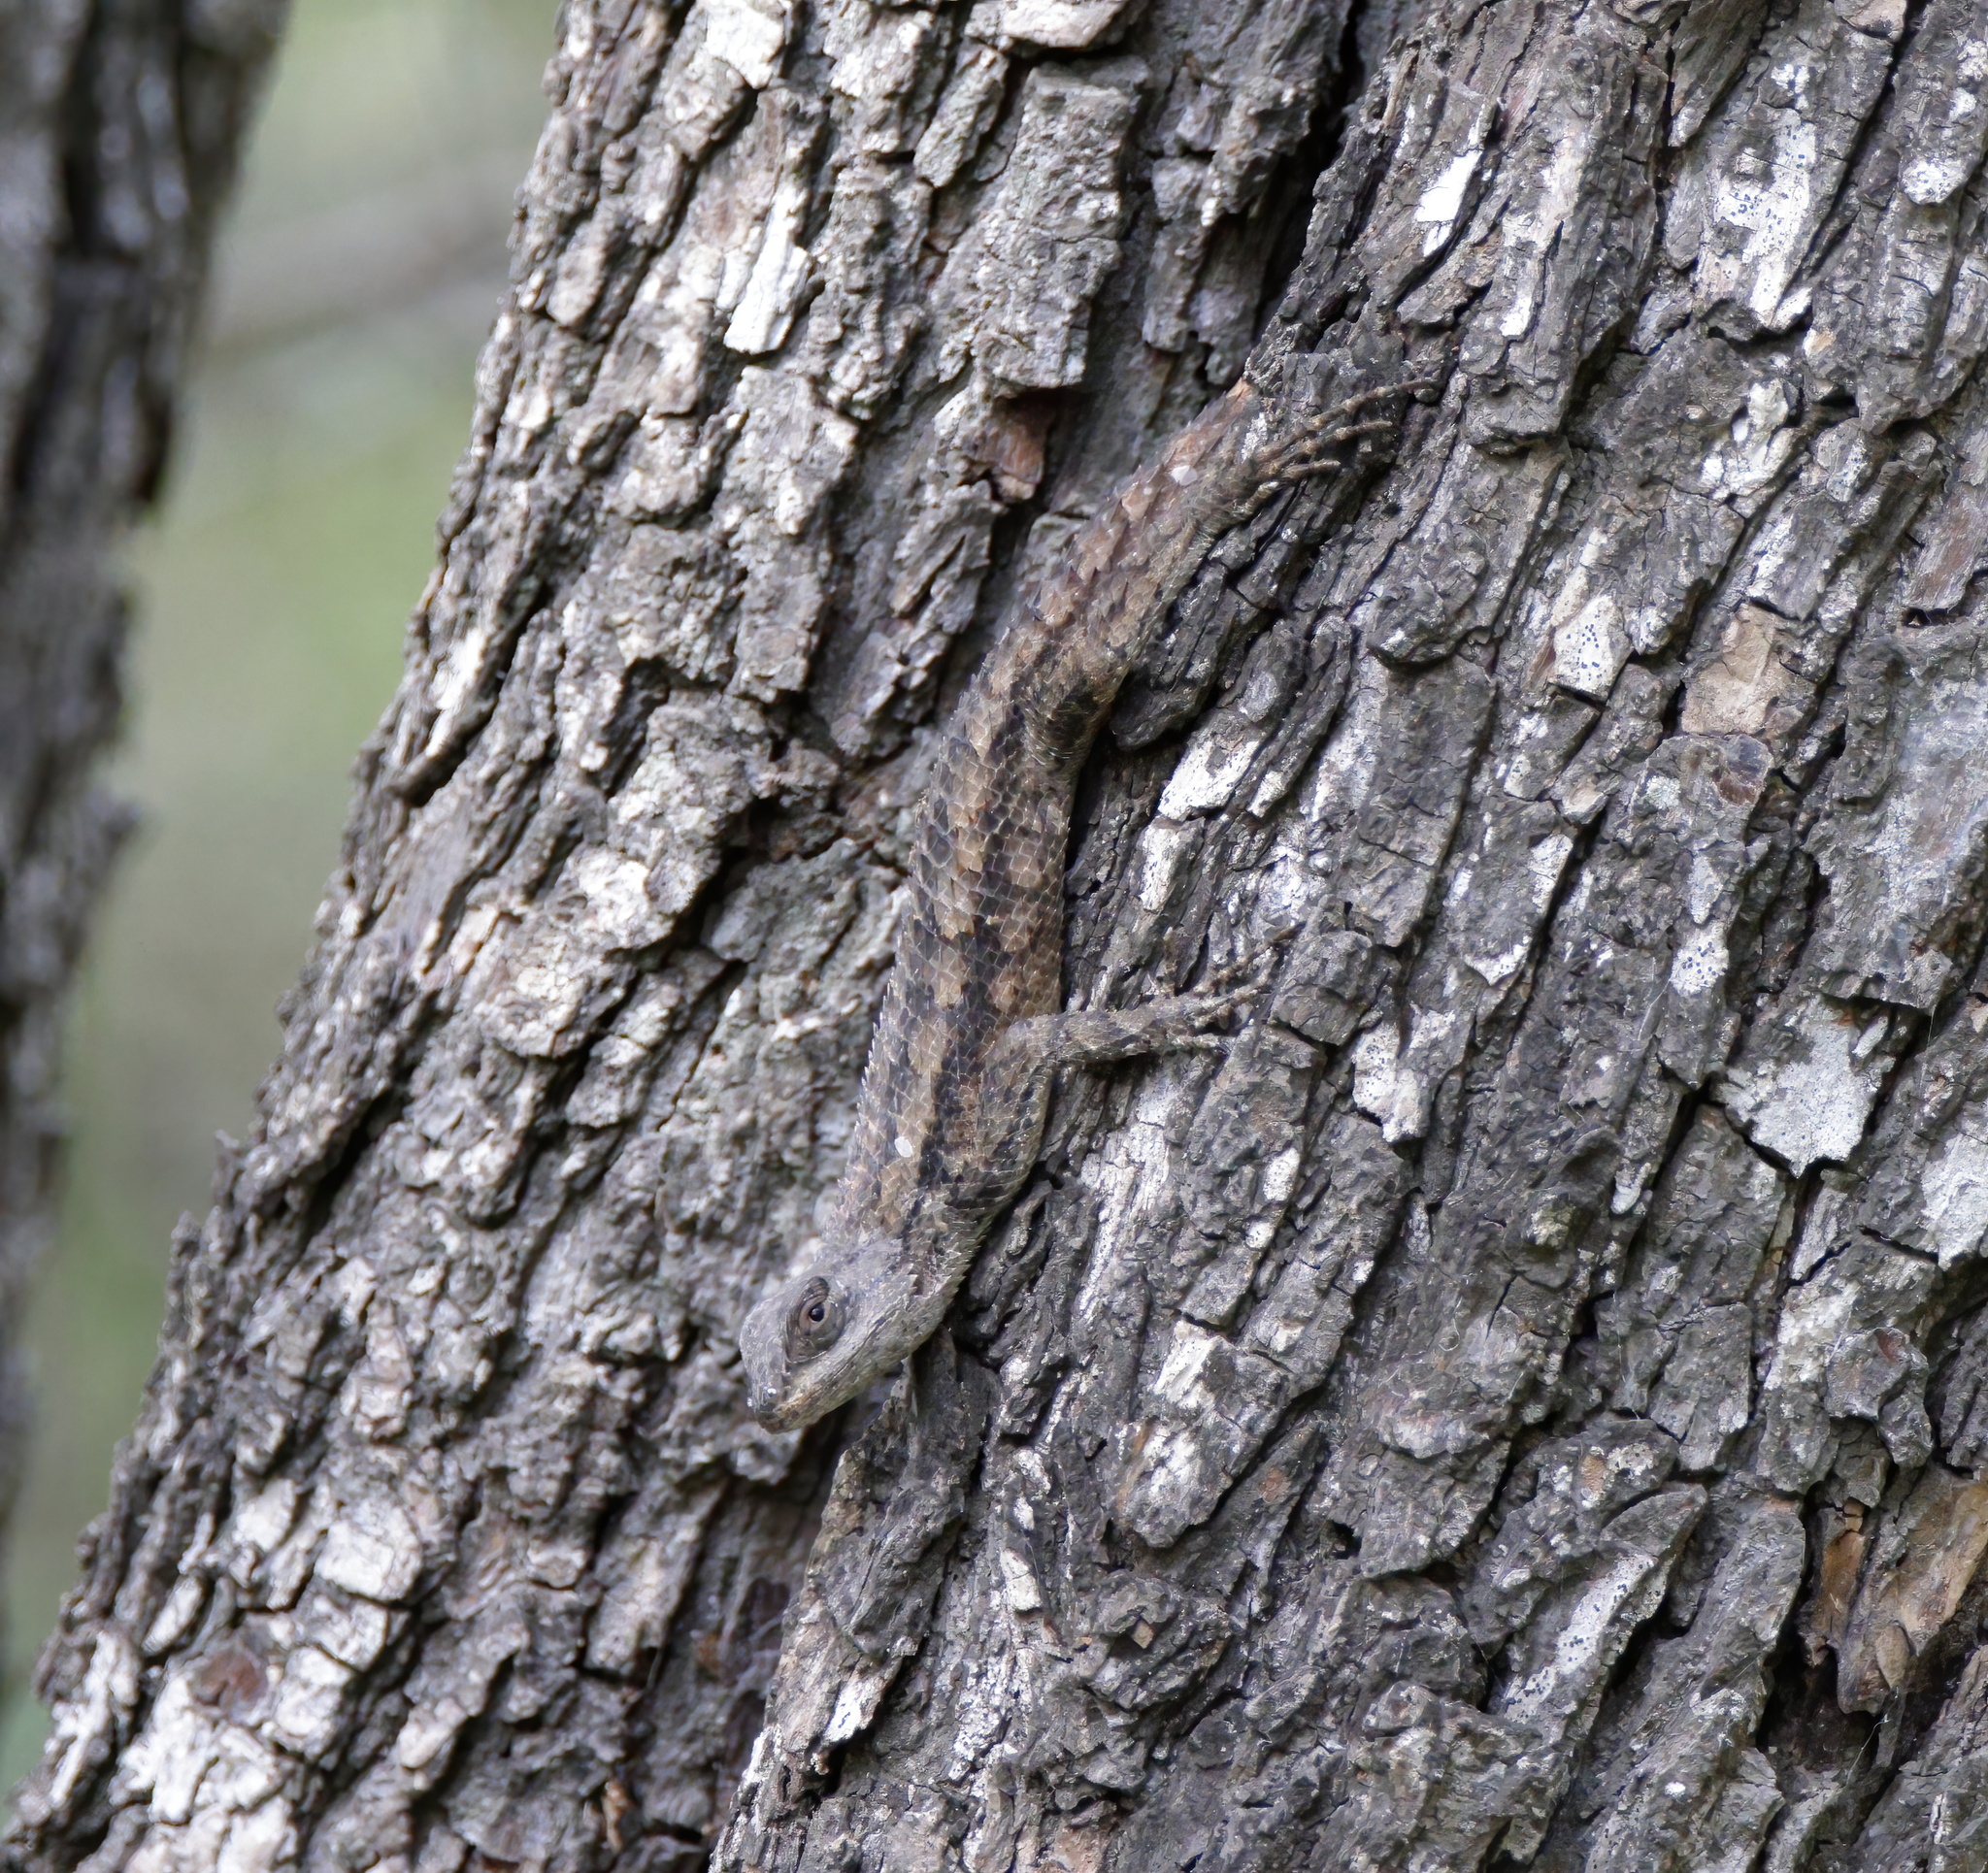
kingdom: Animalia
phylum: Chordata
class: Squamata
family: Phrynosomatidae
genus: Sceloporus
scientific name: Sceloporus olivaceus
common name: Texas spiny lizard
